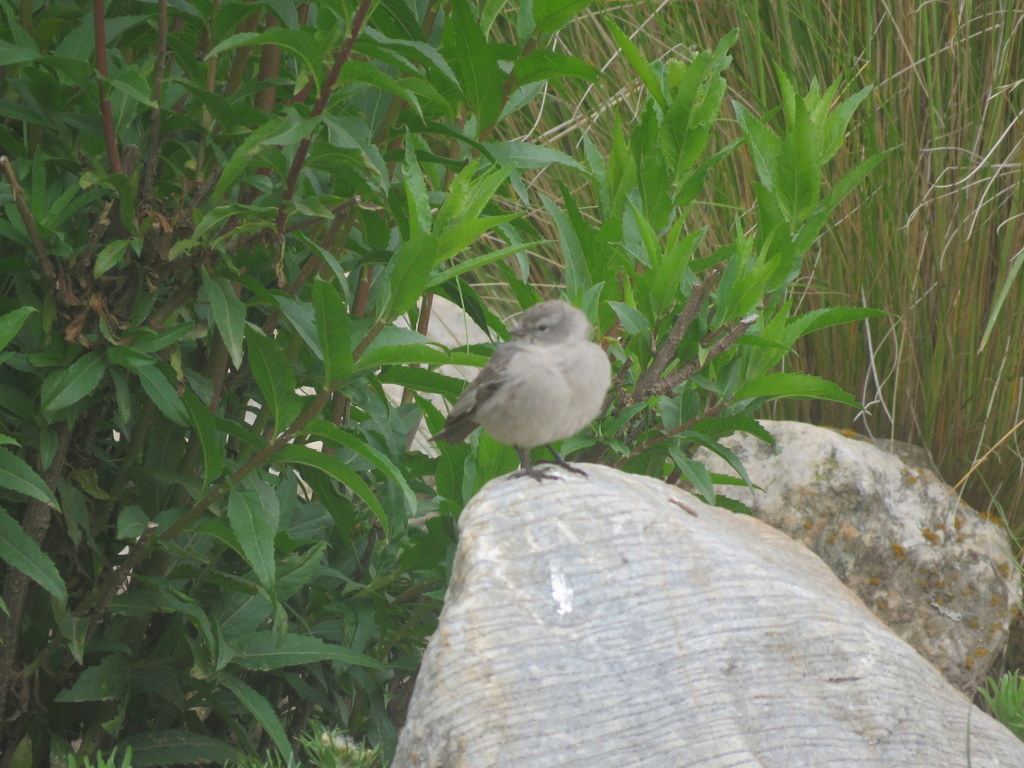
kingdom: Animalia
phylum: Chordata
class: Aves
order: Passeriformes
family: Thraupidae
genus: Geospizopsis
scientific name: Geospizopsis plebejus
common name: Ash-breasted sierra-finch
